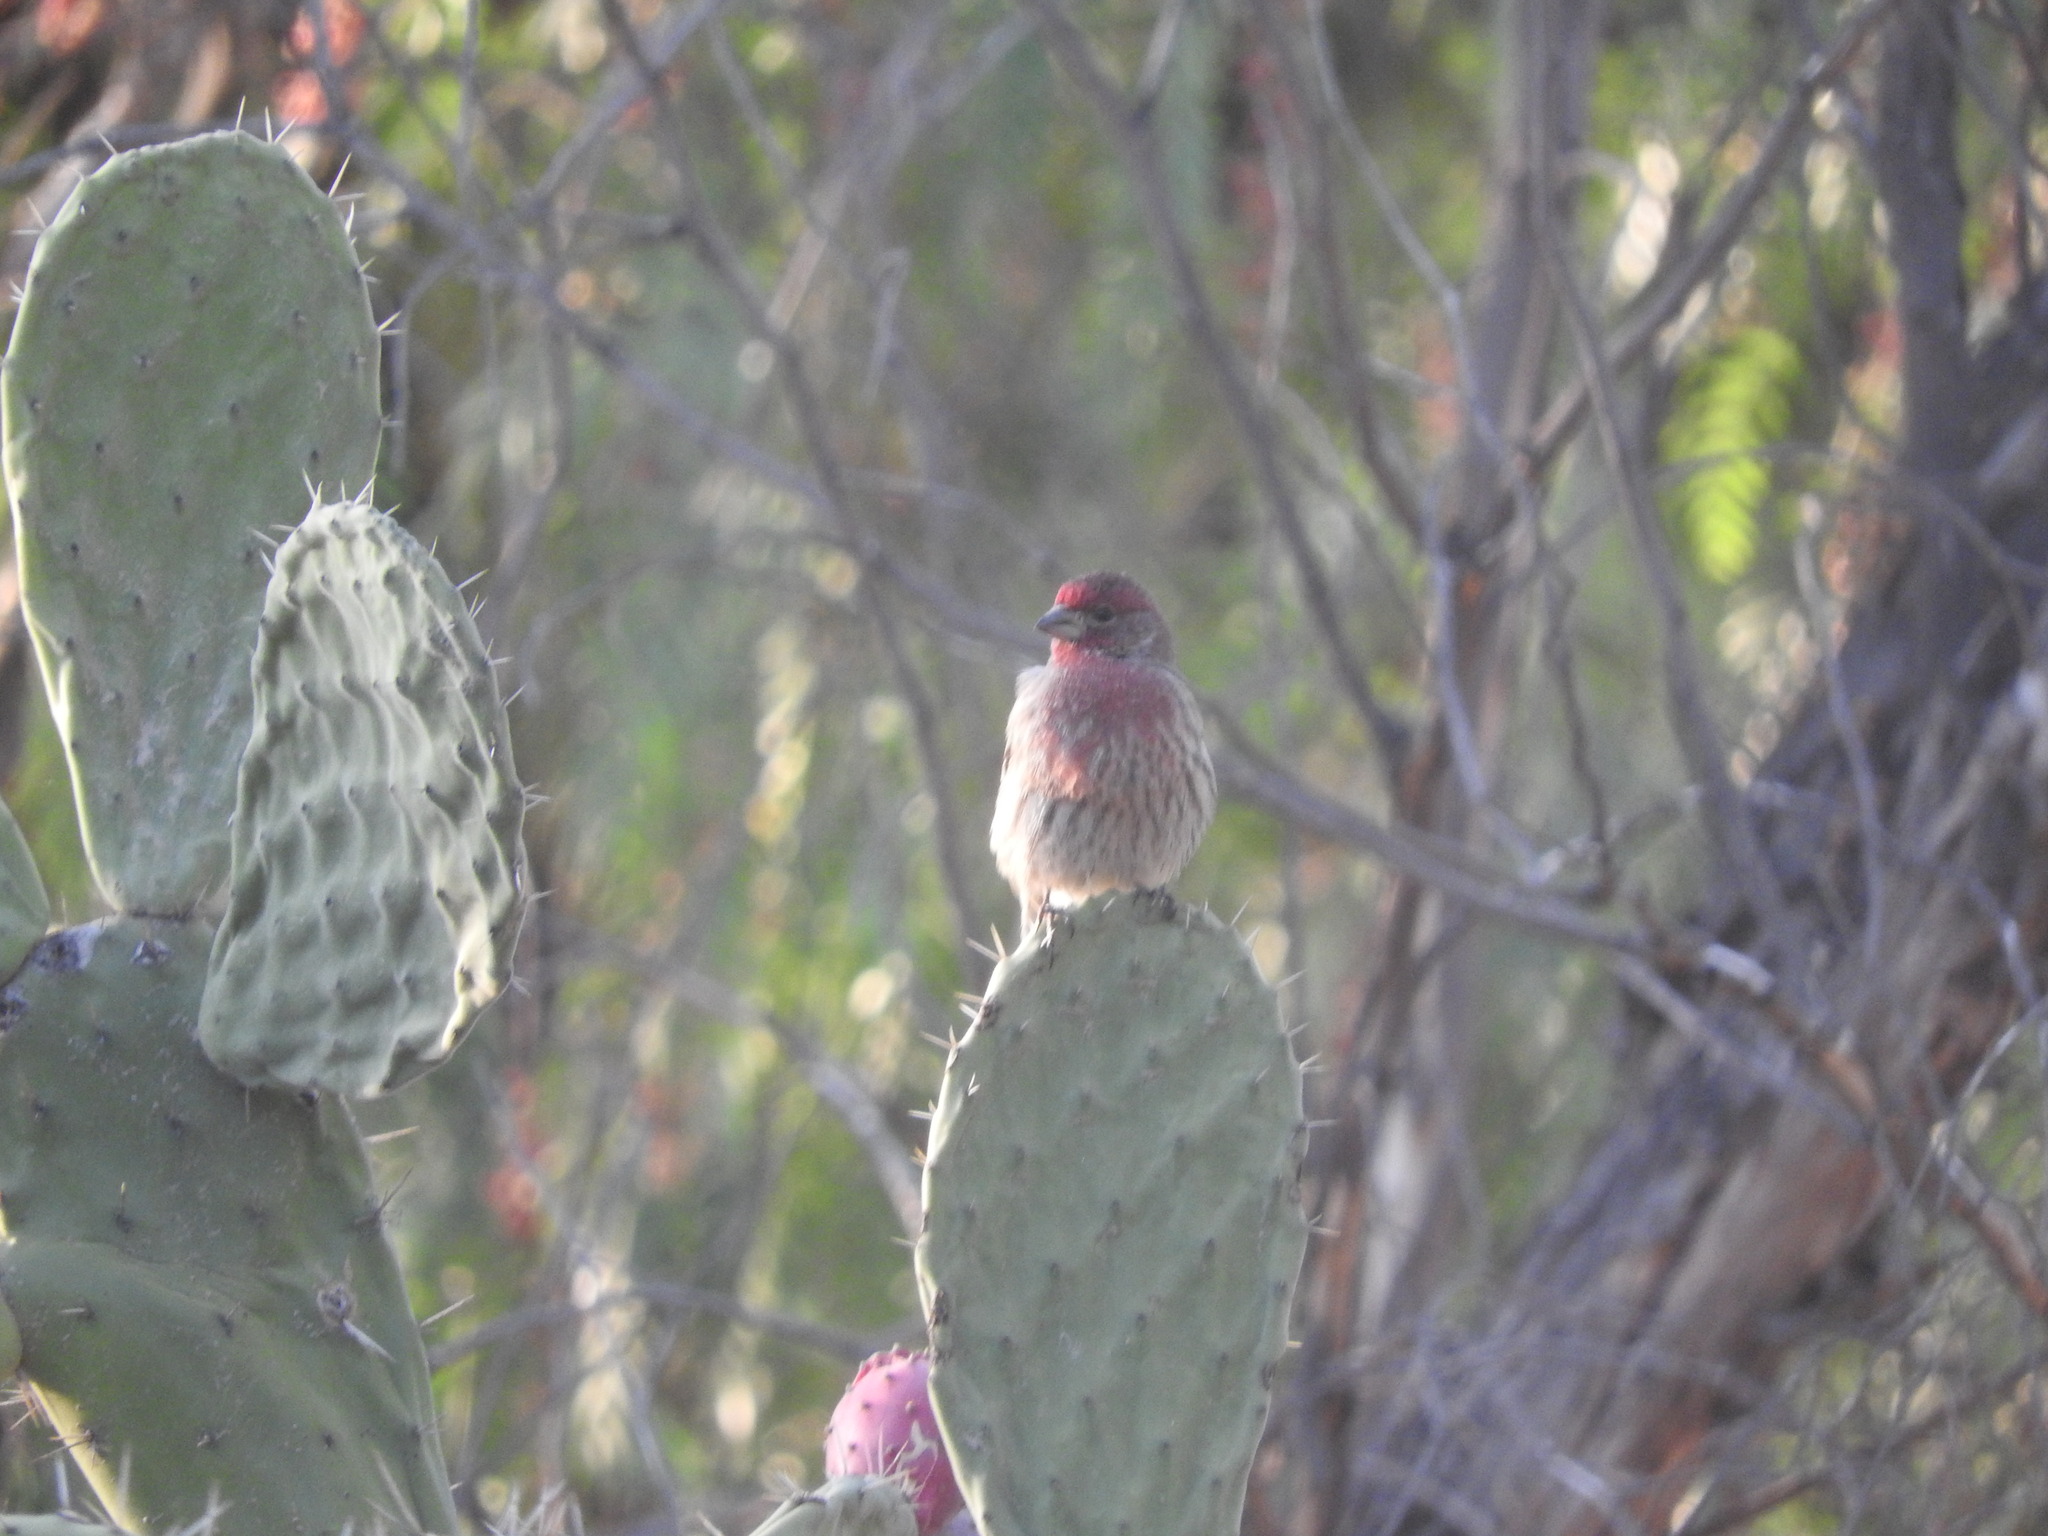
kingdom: Animalia
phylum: Chordata
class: Aves
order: Passeriformes
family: Fringillidae
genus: Haemorhous
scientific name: Haemorhous mexicanus
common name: House finch
